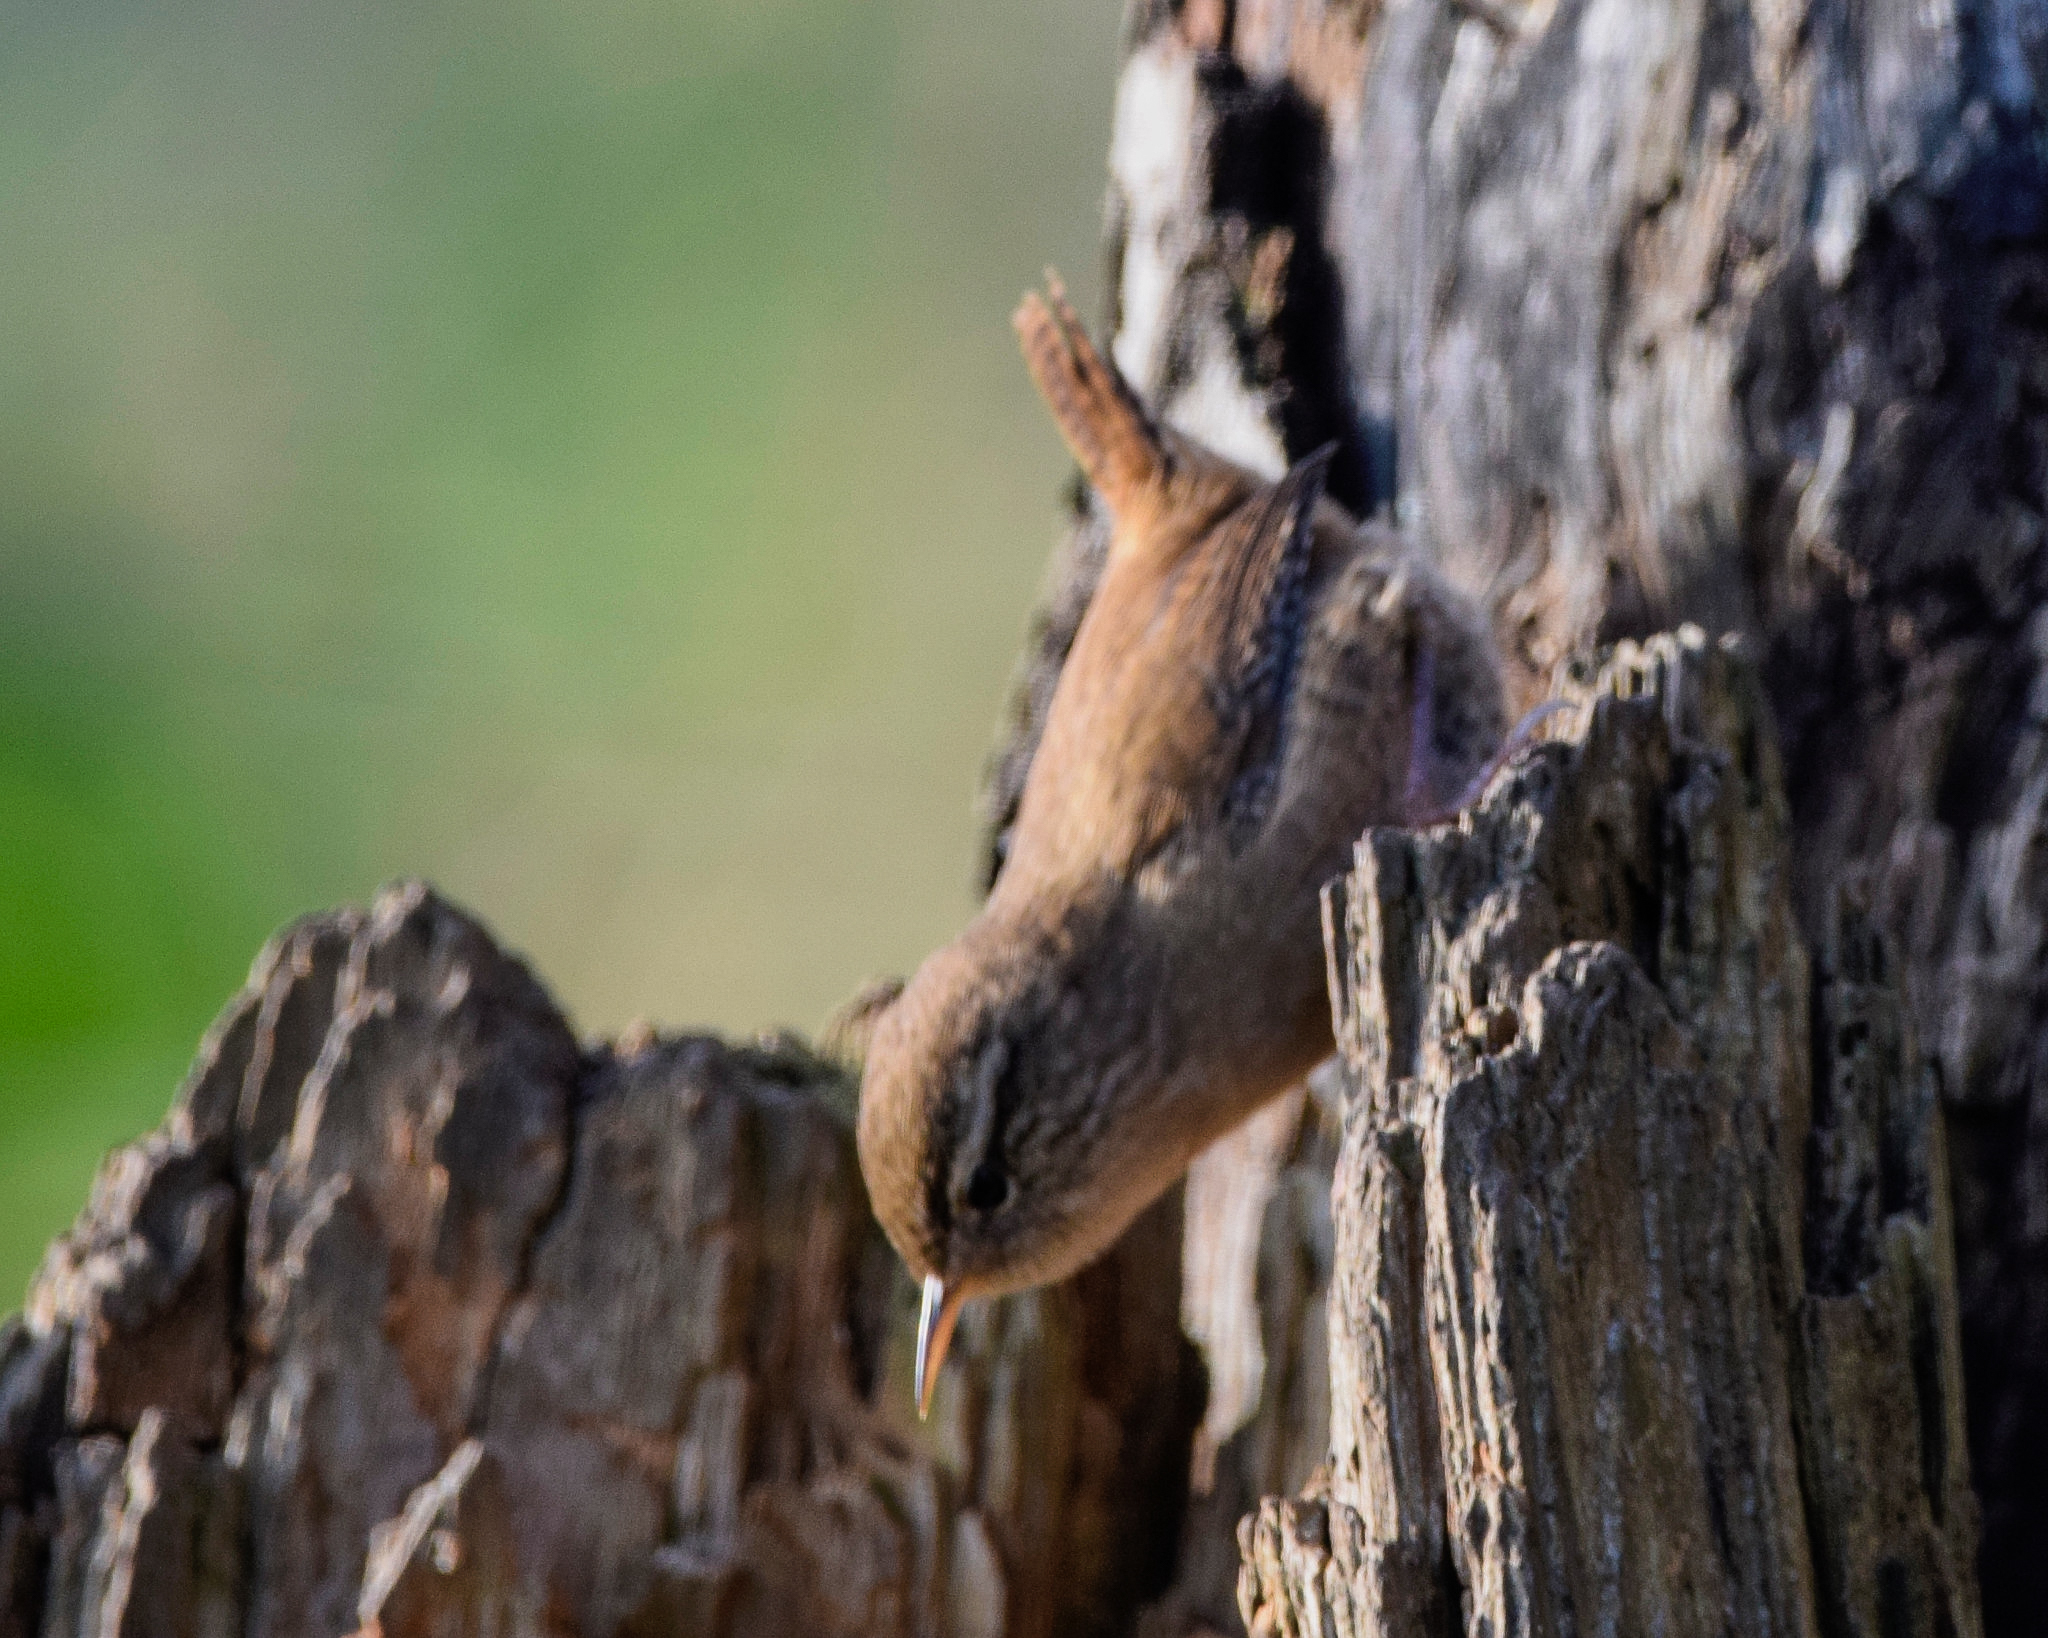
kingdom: Animalia
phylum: Chordata
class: Aves
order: Passeriformes
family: Troglodytidae
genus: Troglodytes
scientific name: Troglodytes troglodytes
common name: Eurasian wren
